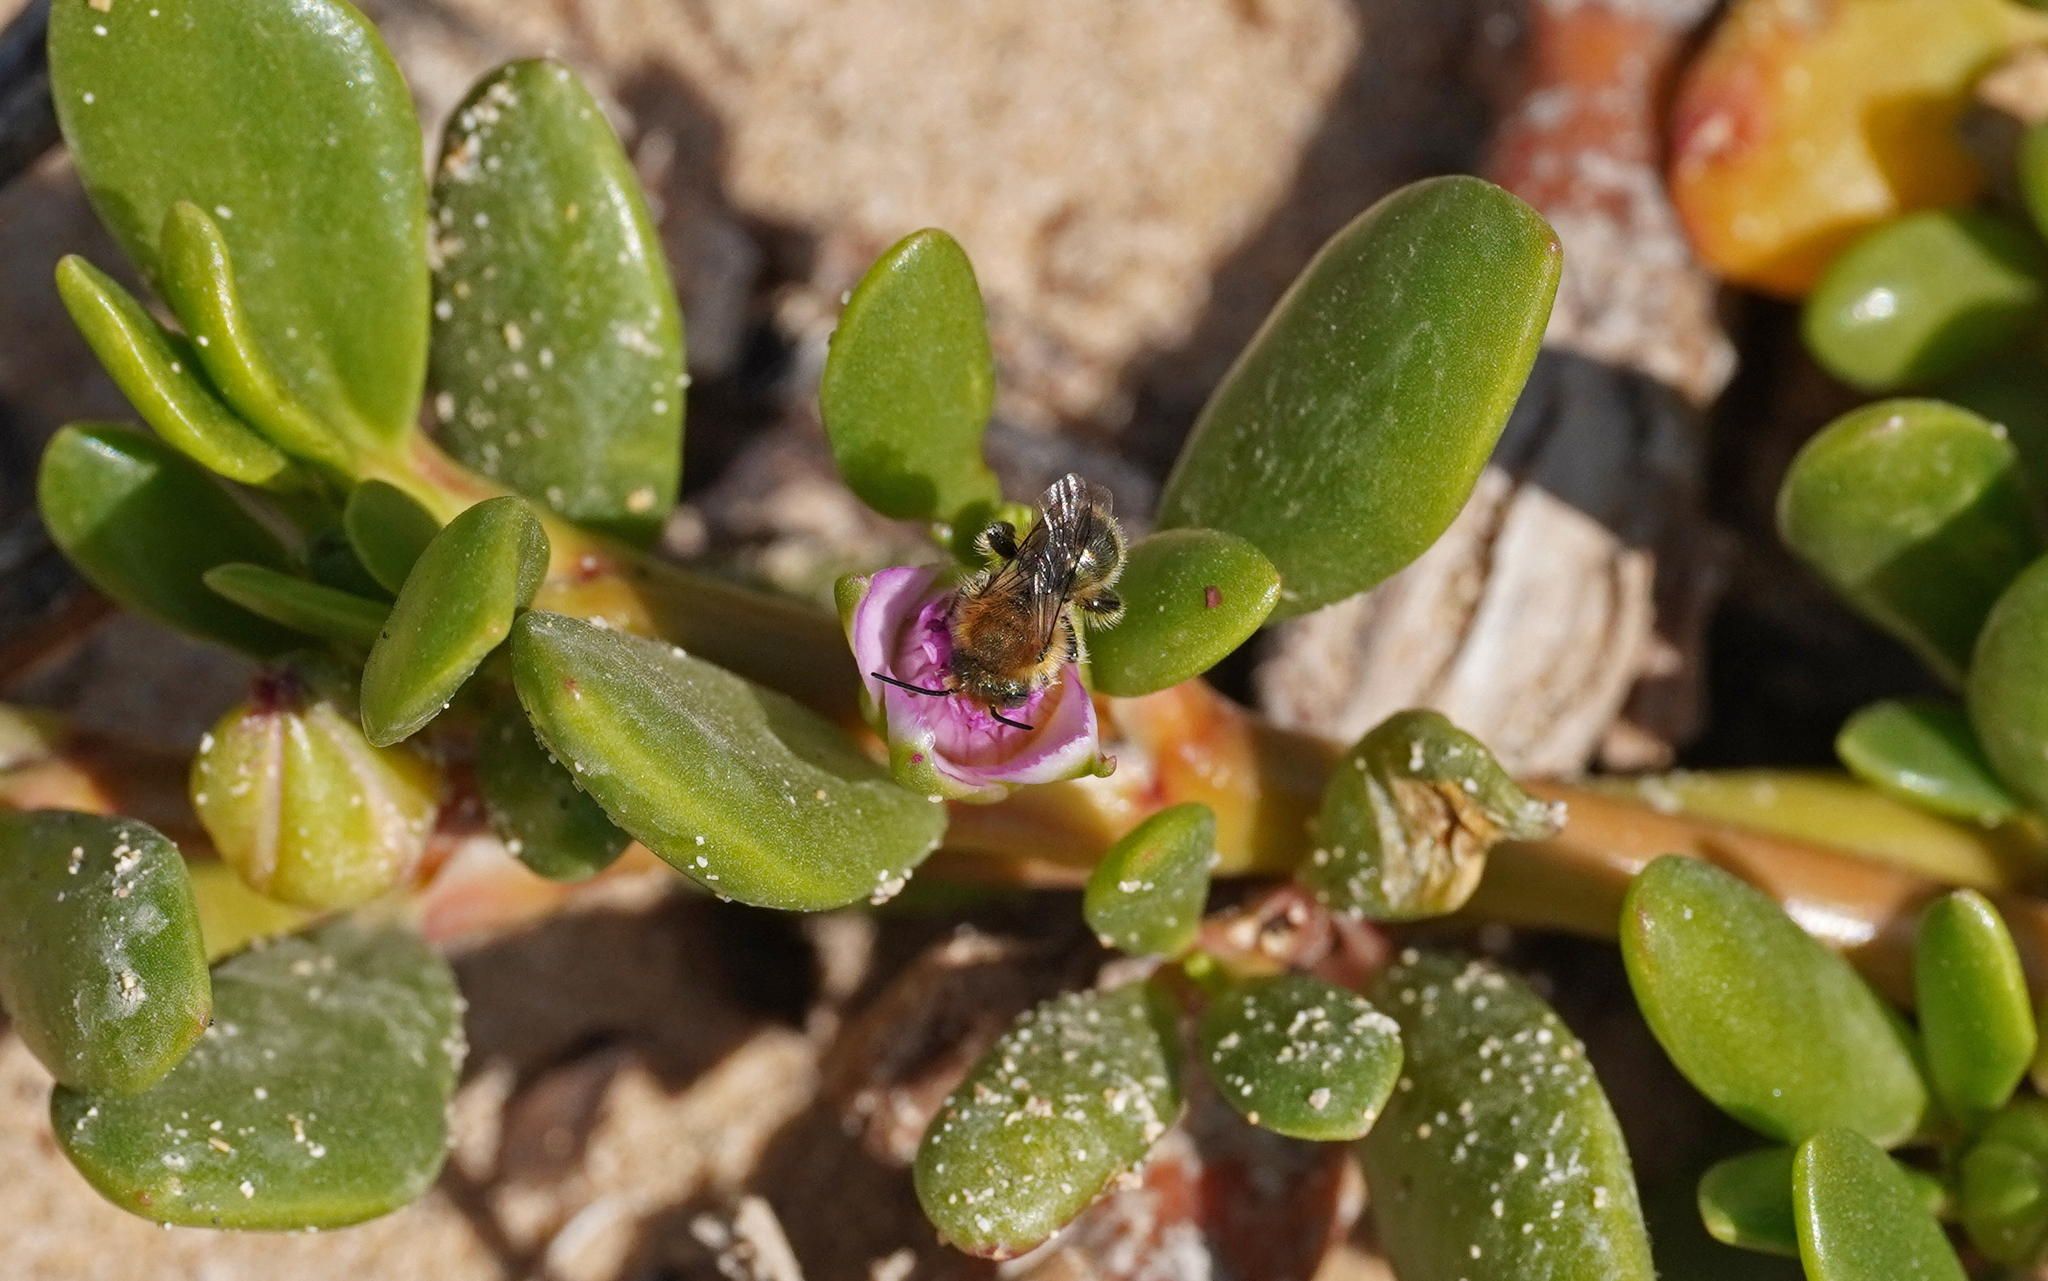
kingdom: Animalia
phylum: Arthropoda
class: Insecta
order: Hymenoptera
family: Megachilidae
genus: Osmia
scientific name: Osmia latreillei
